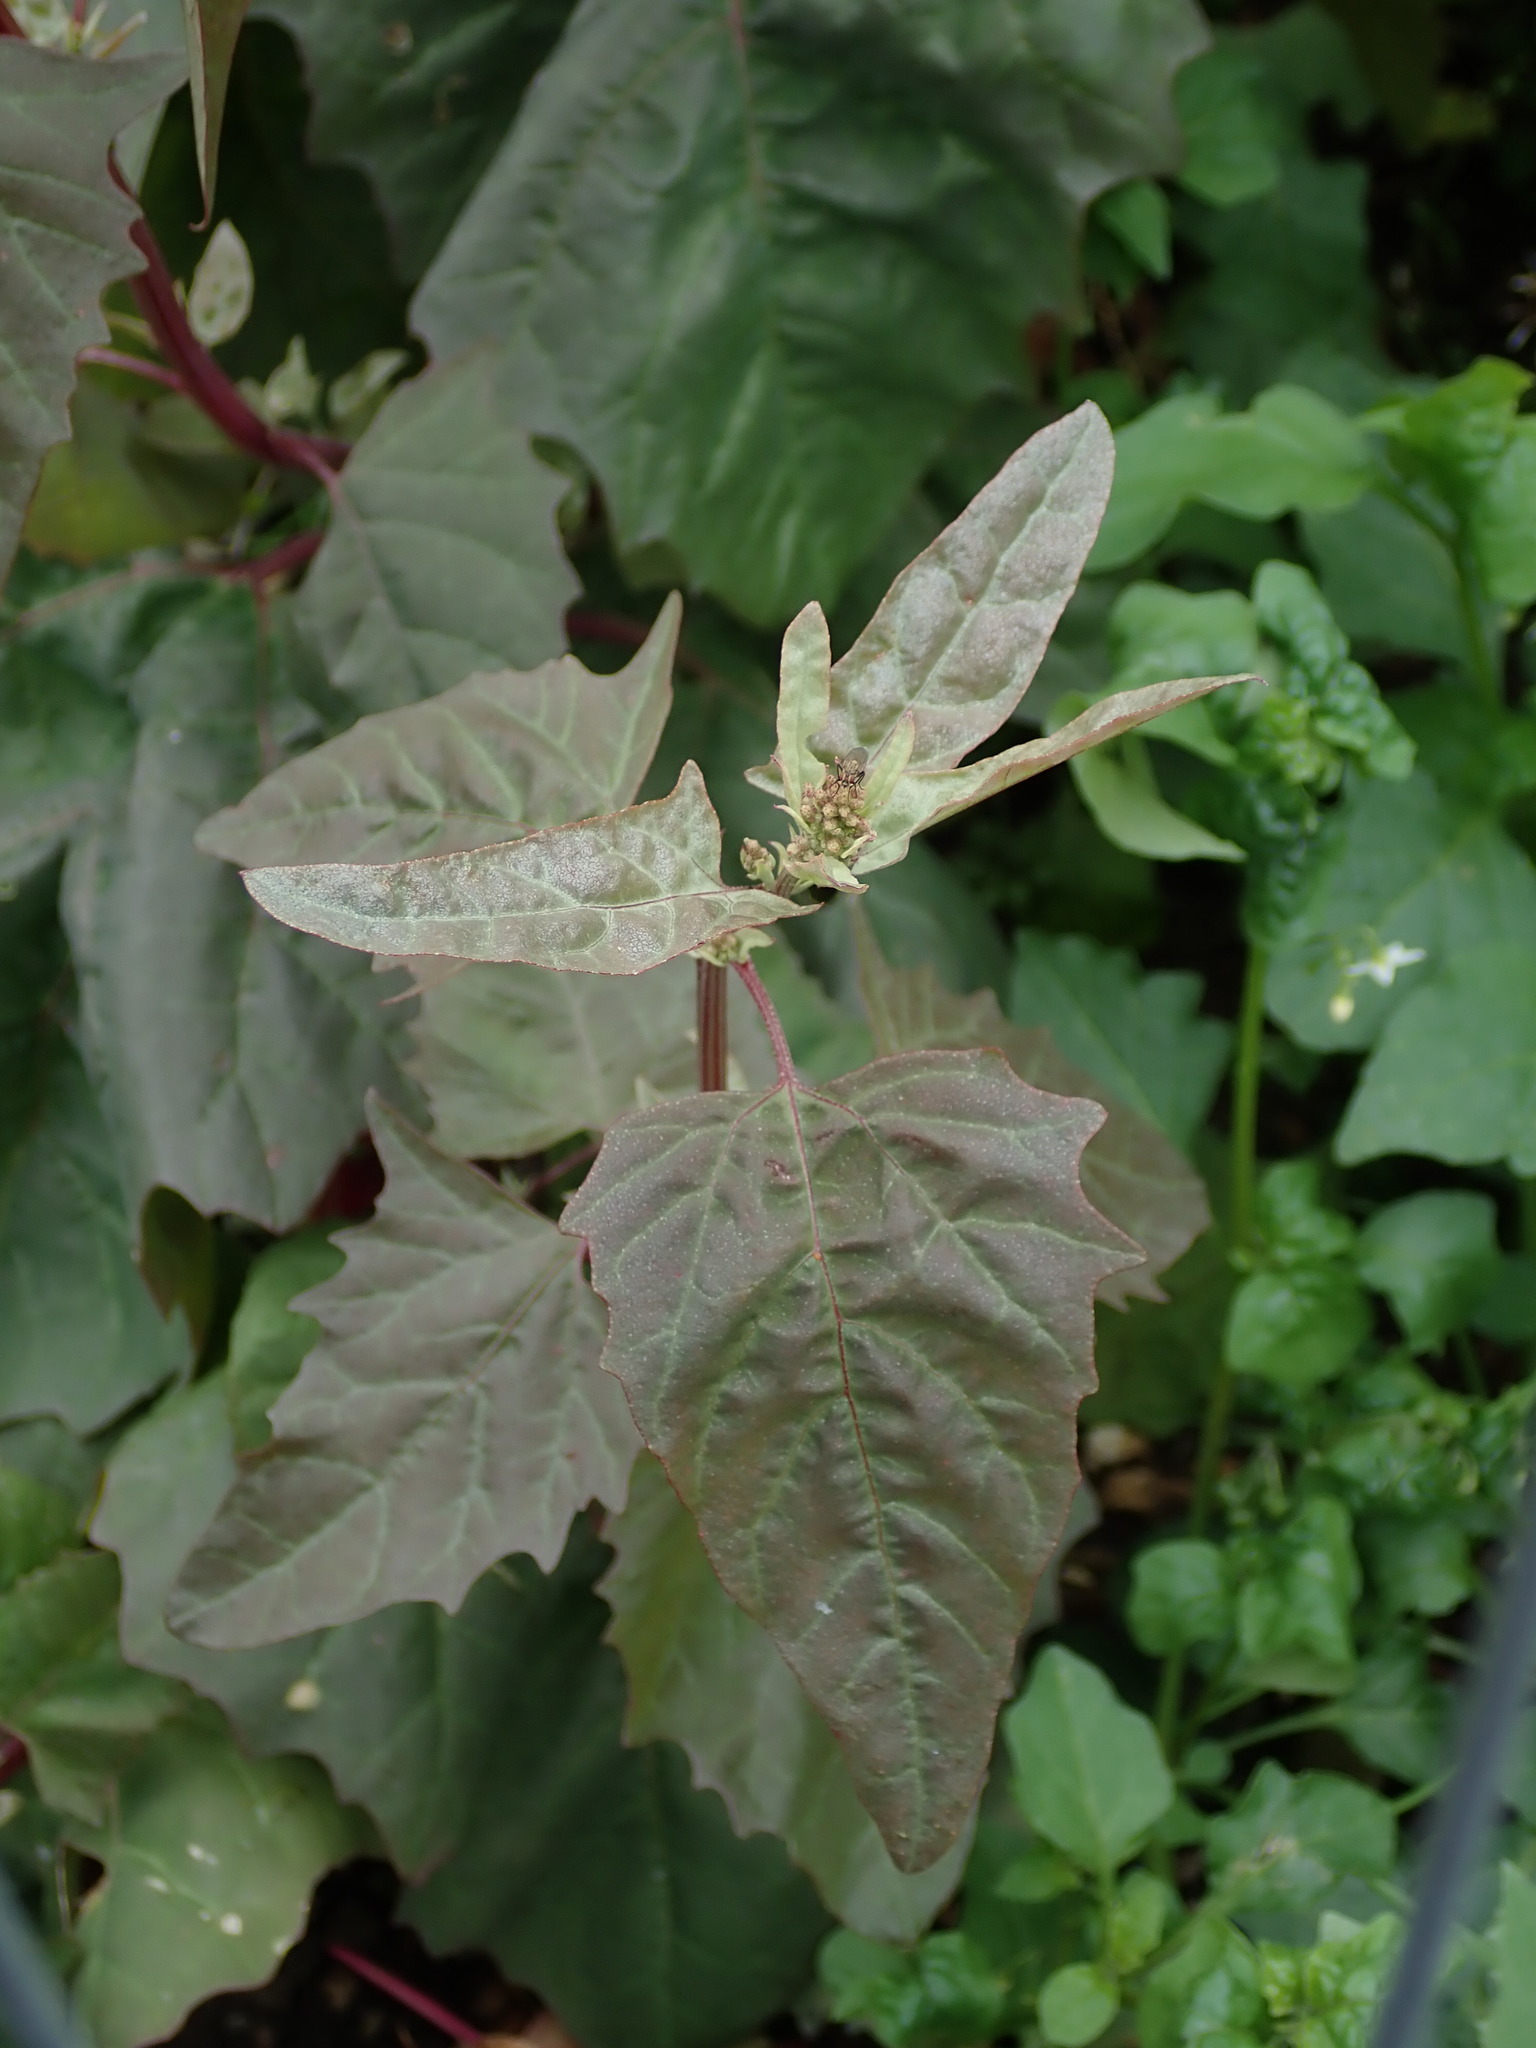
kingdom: Plantae
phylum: Tracheophyta
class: Magnoliopsida
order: Caryophyllales
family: Amaranthaceae
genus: Atriplex
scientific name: Atriplex hortensis
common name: Garden orache
